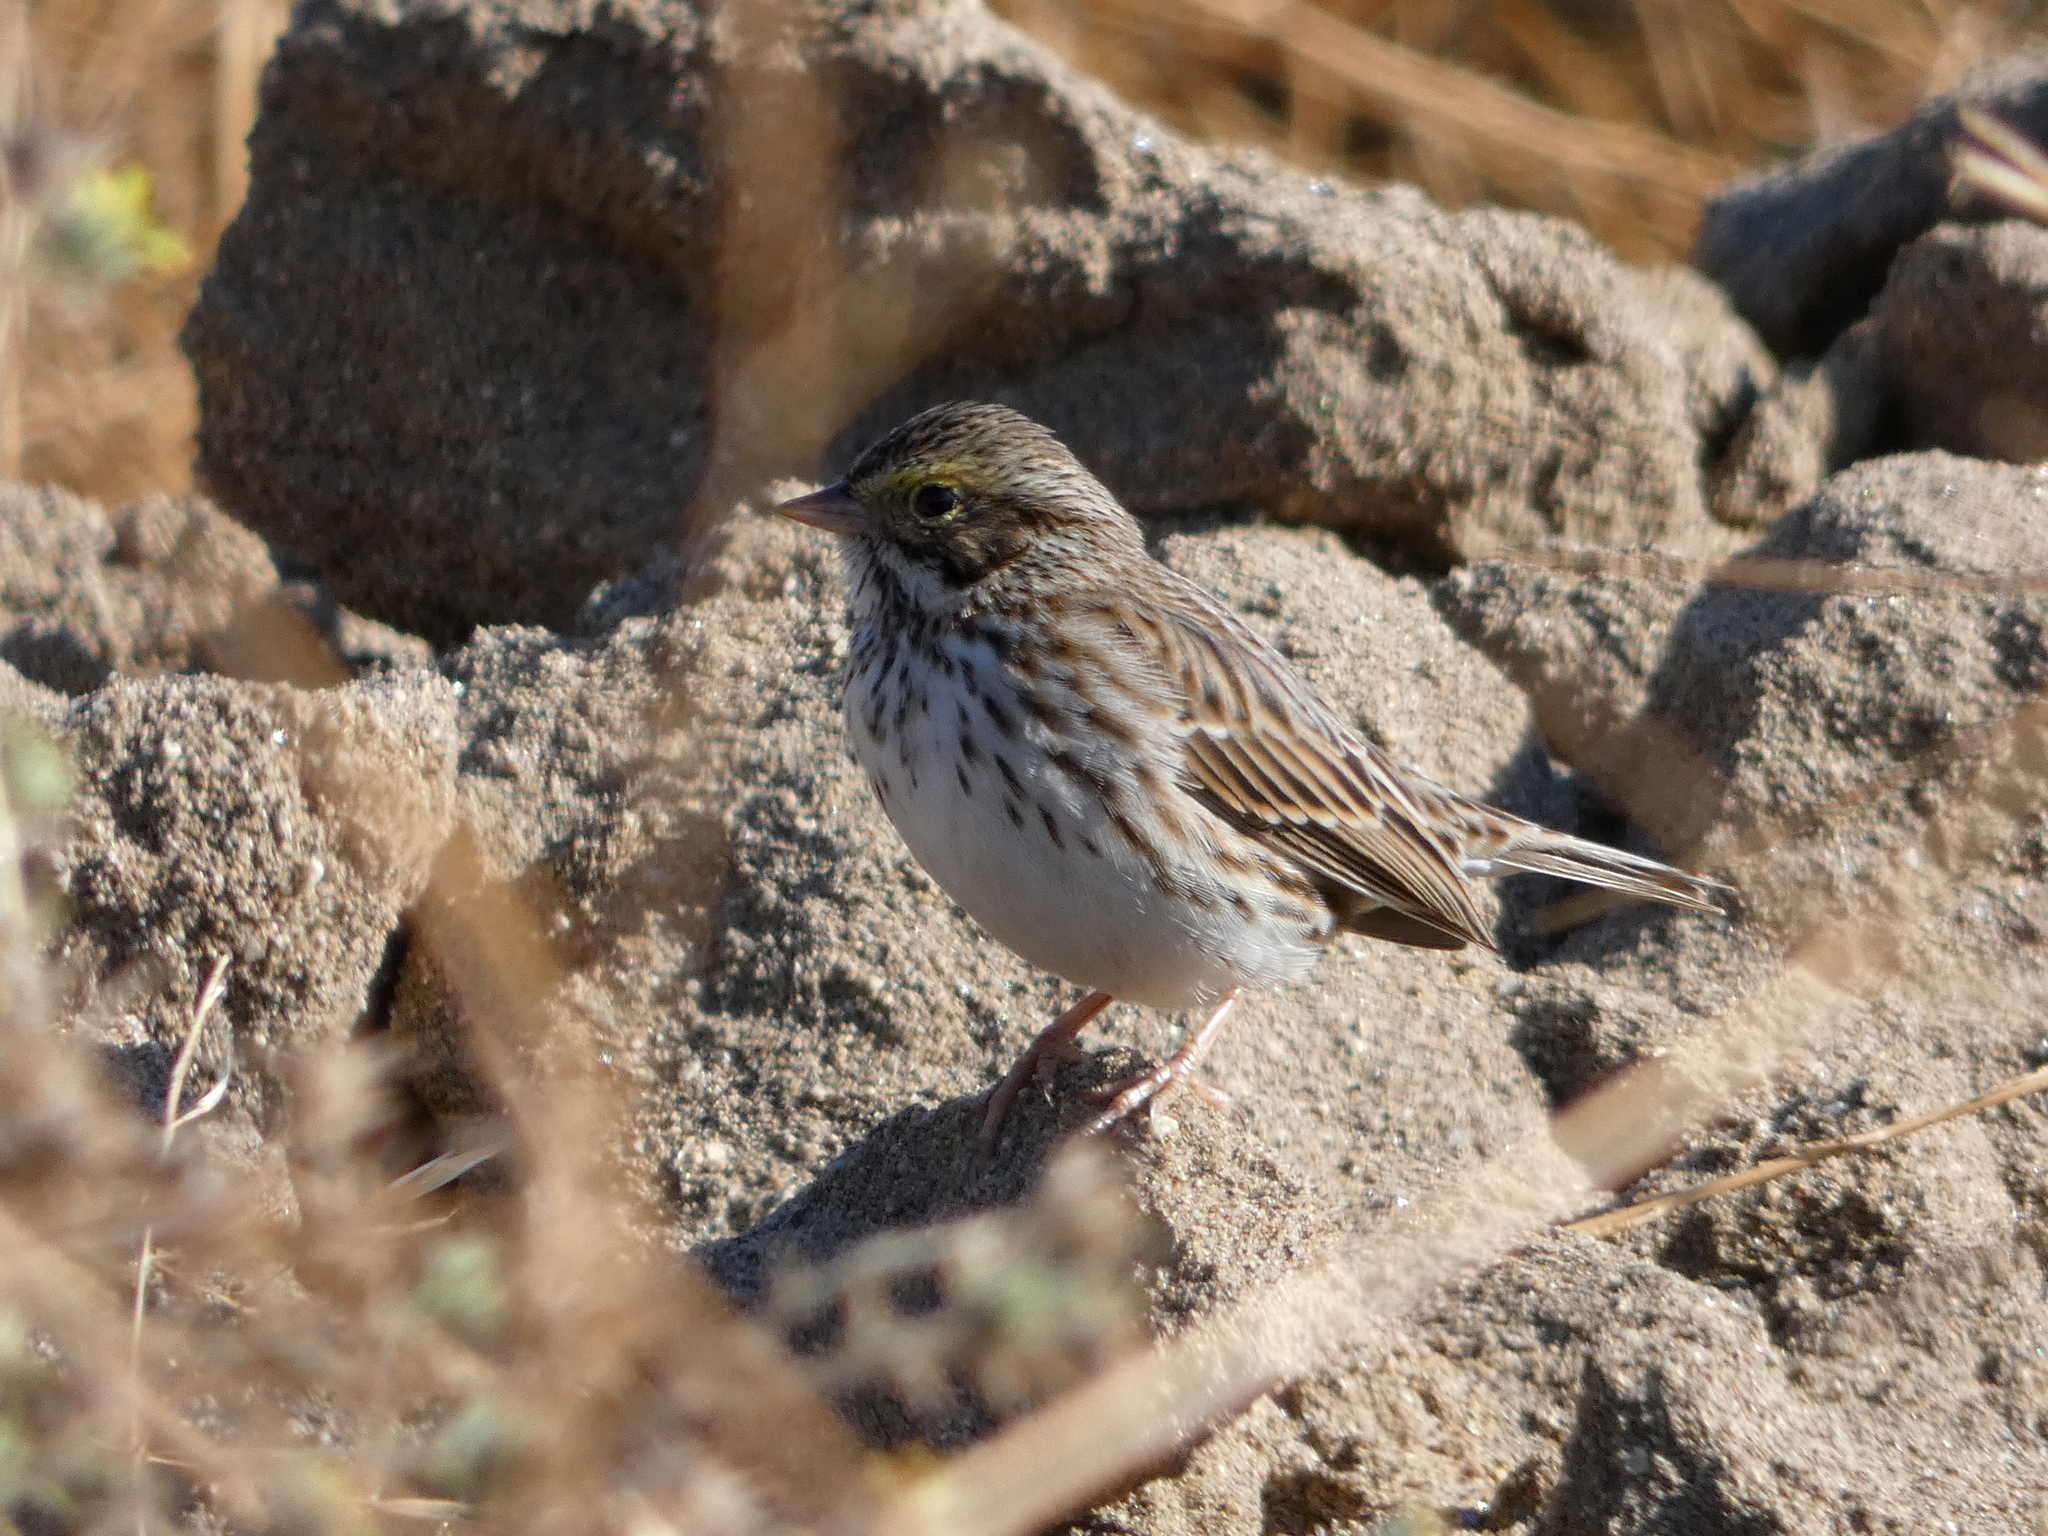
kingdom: Animalia
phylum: Chordata
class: Aves
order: Passeriformes
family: Passerellidae
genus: Passerculus
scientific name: Passerculus sandwichensis
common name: Savannah sparrow
